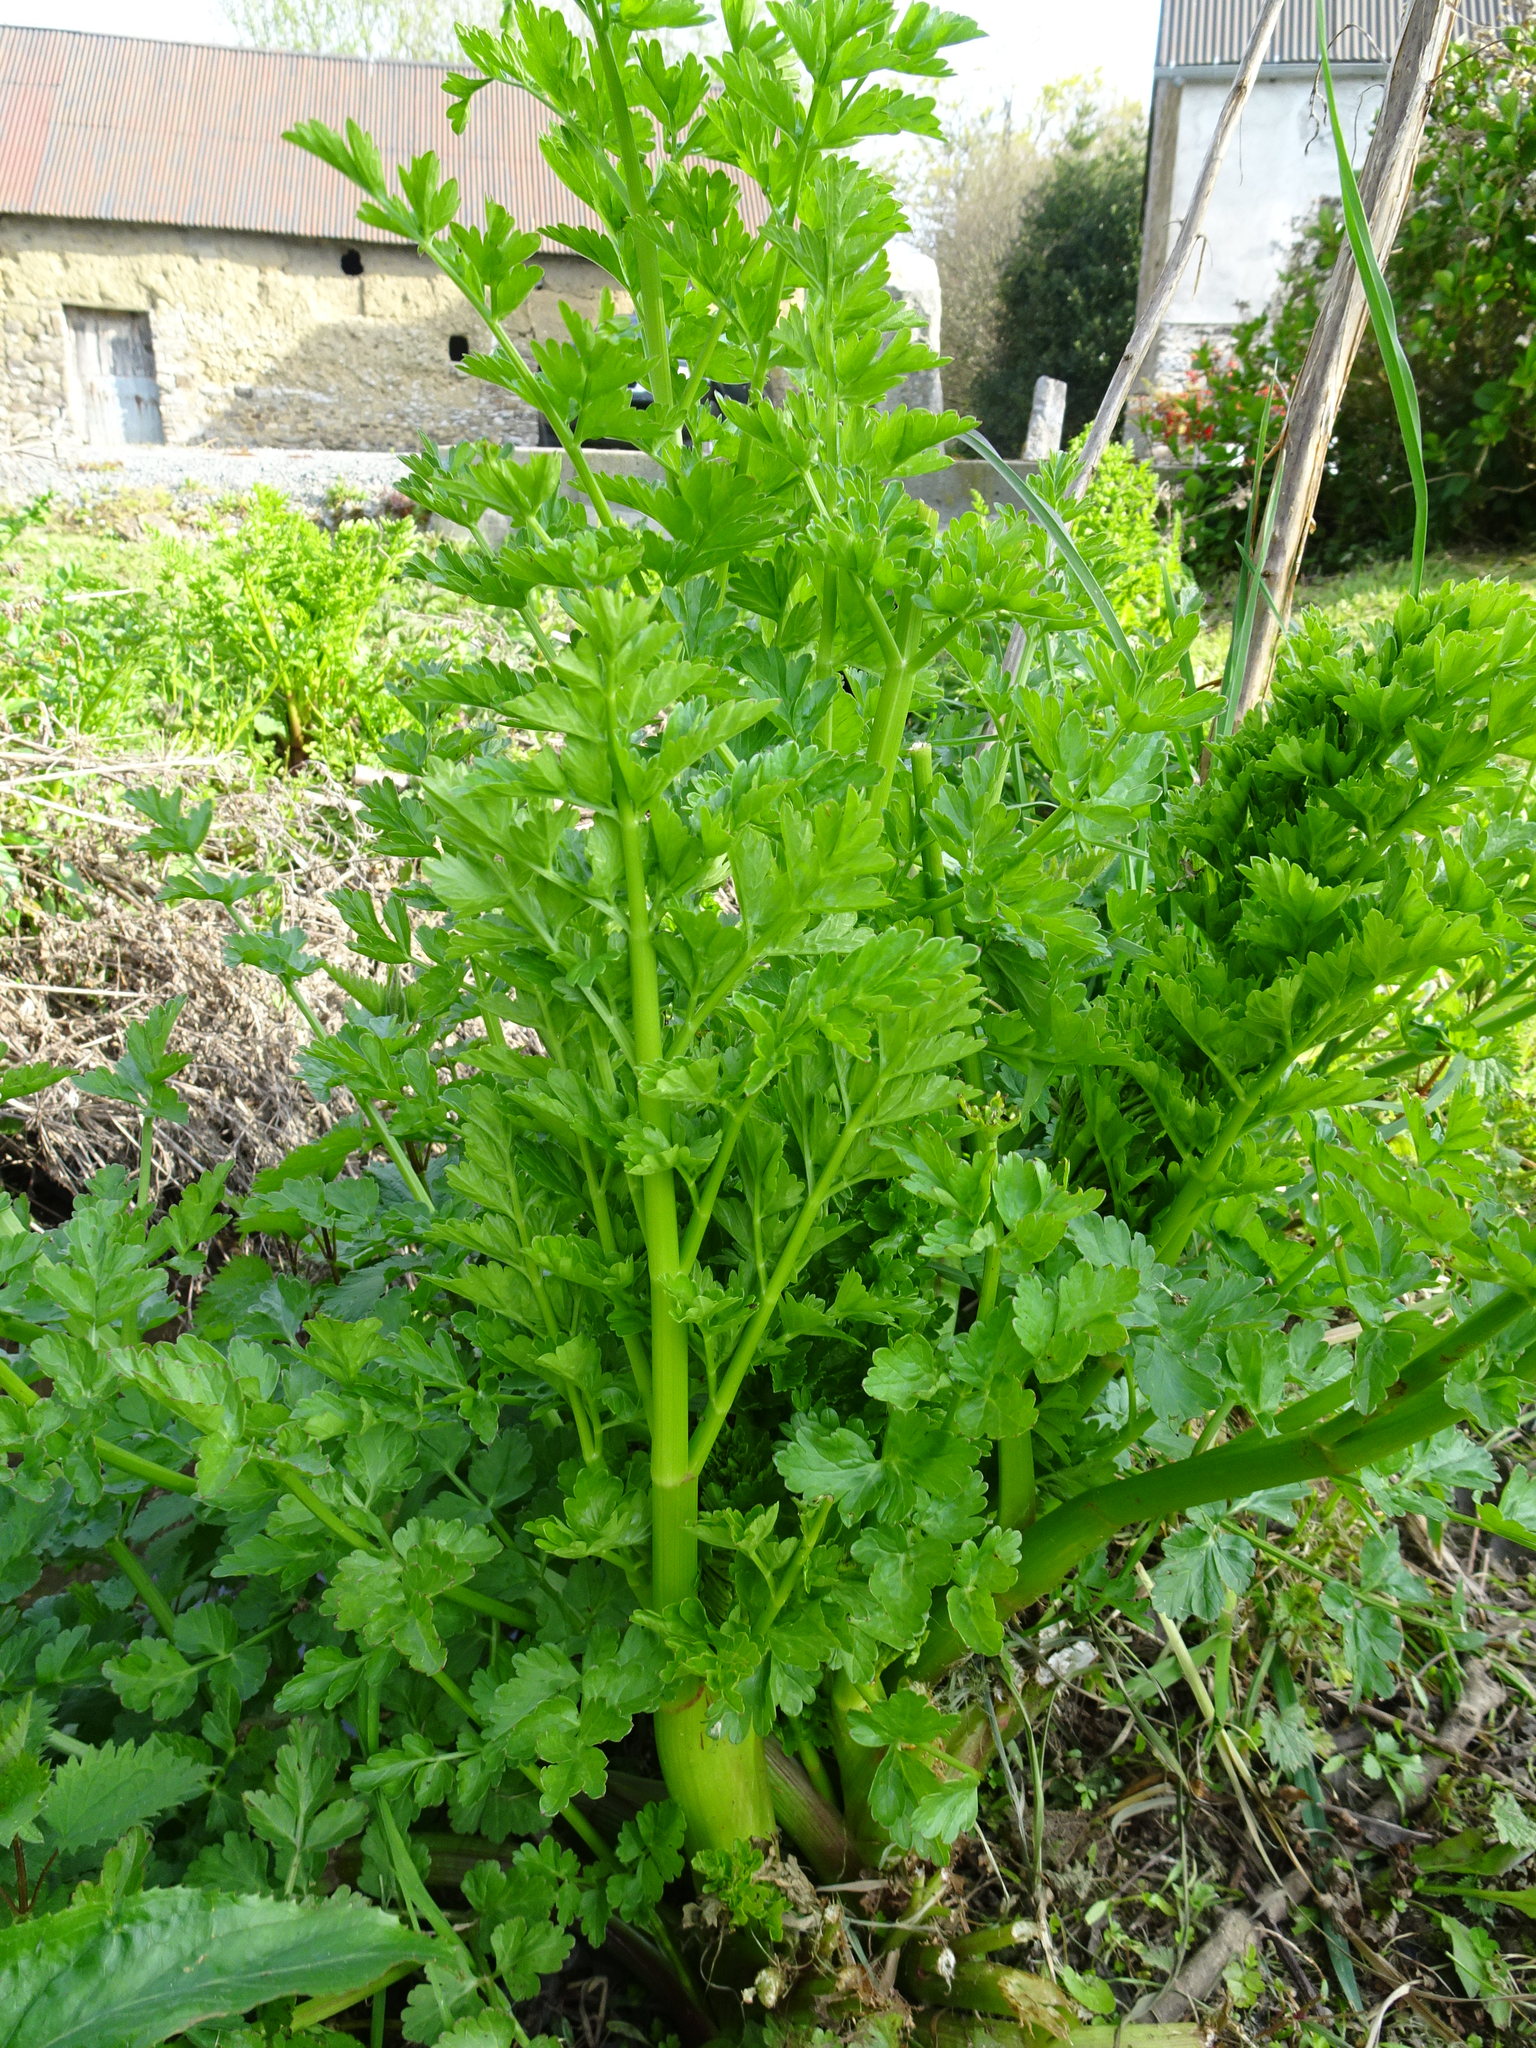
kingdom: Plantae
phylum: Tracheophyta
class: Magnoliopsida
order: Apiales
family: Apiaceae
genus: Oenanthe
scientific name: Oenanthe crocata
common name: Hemlock water-dropwort
